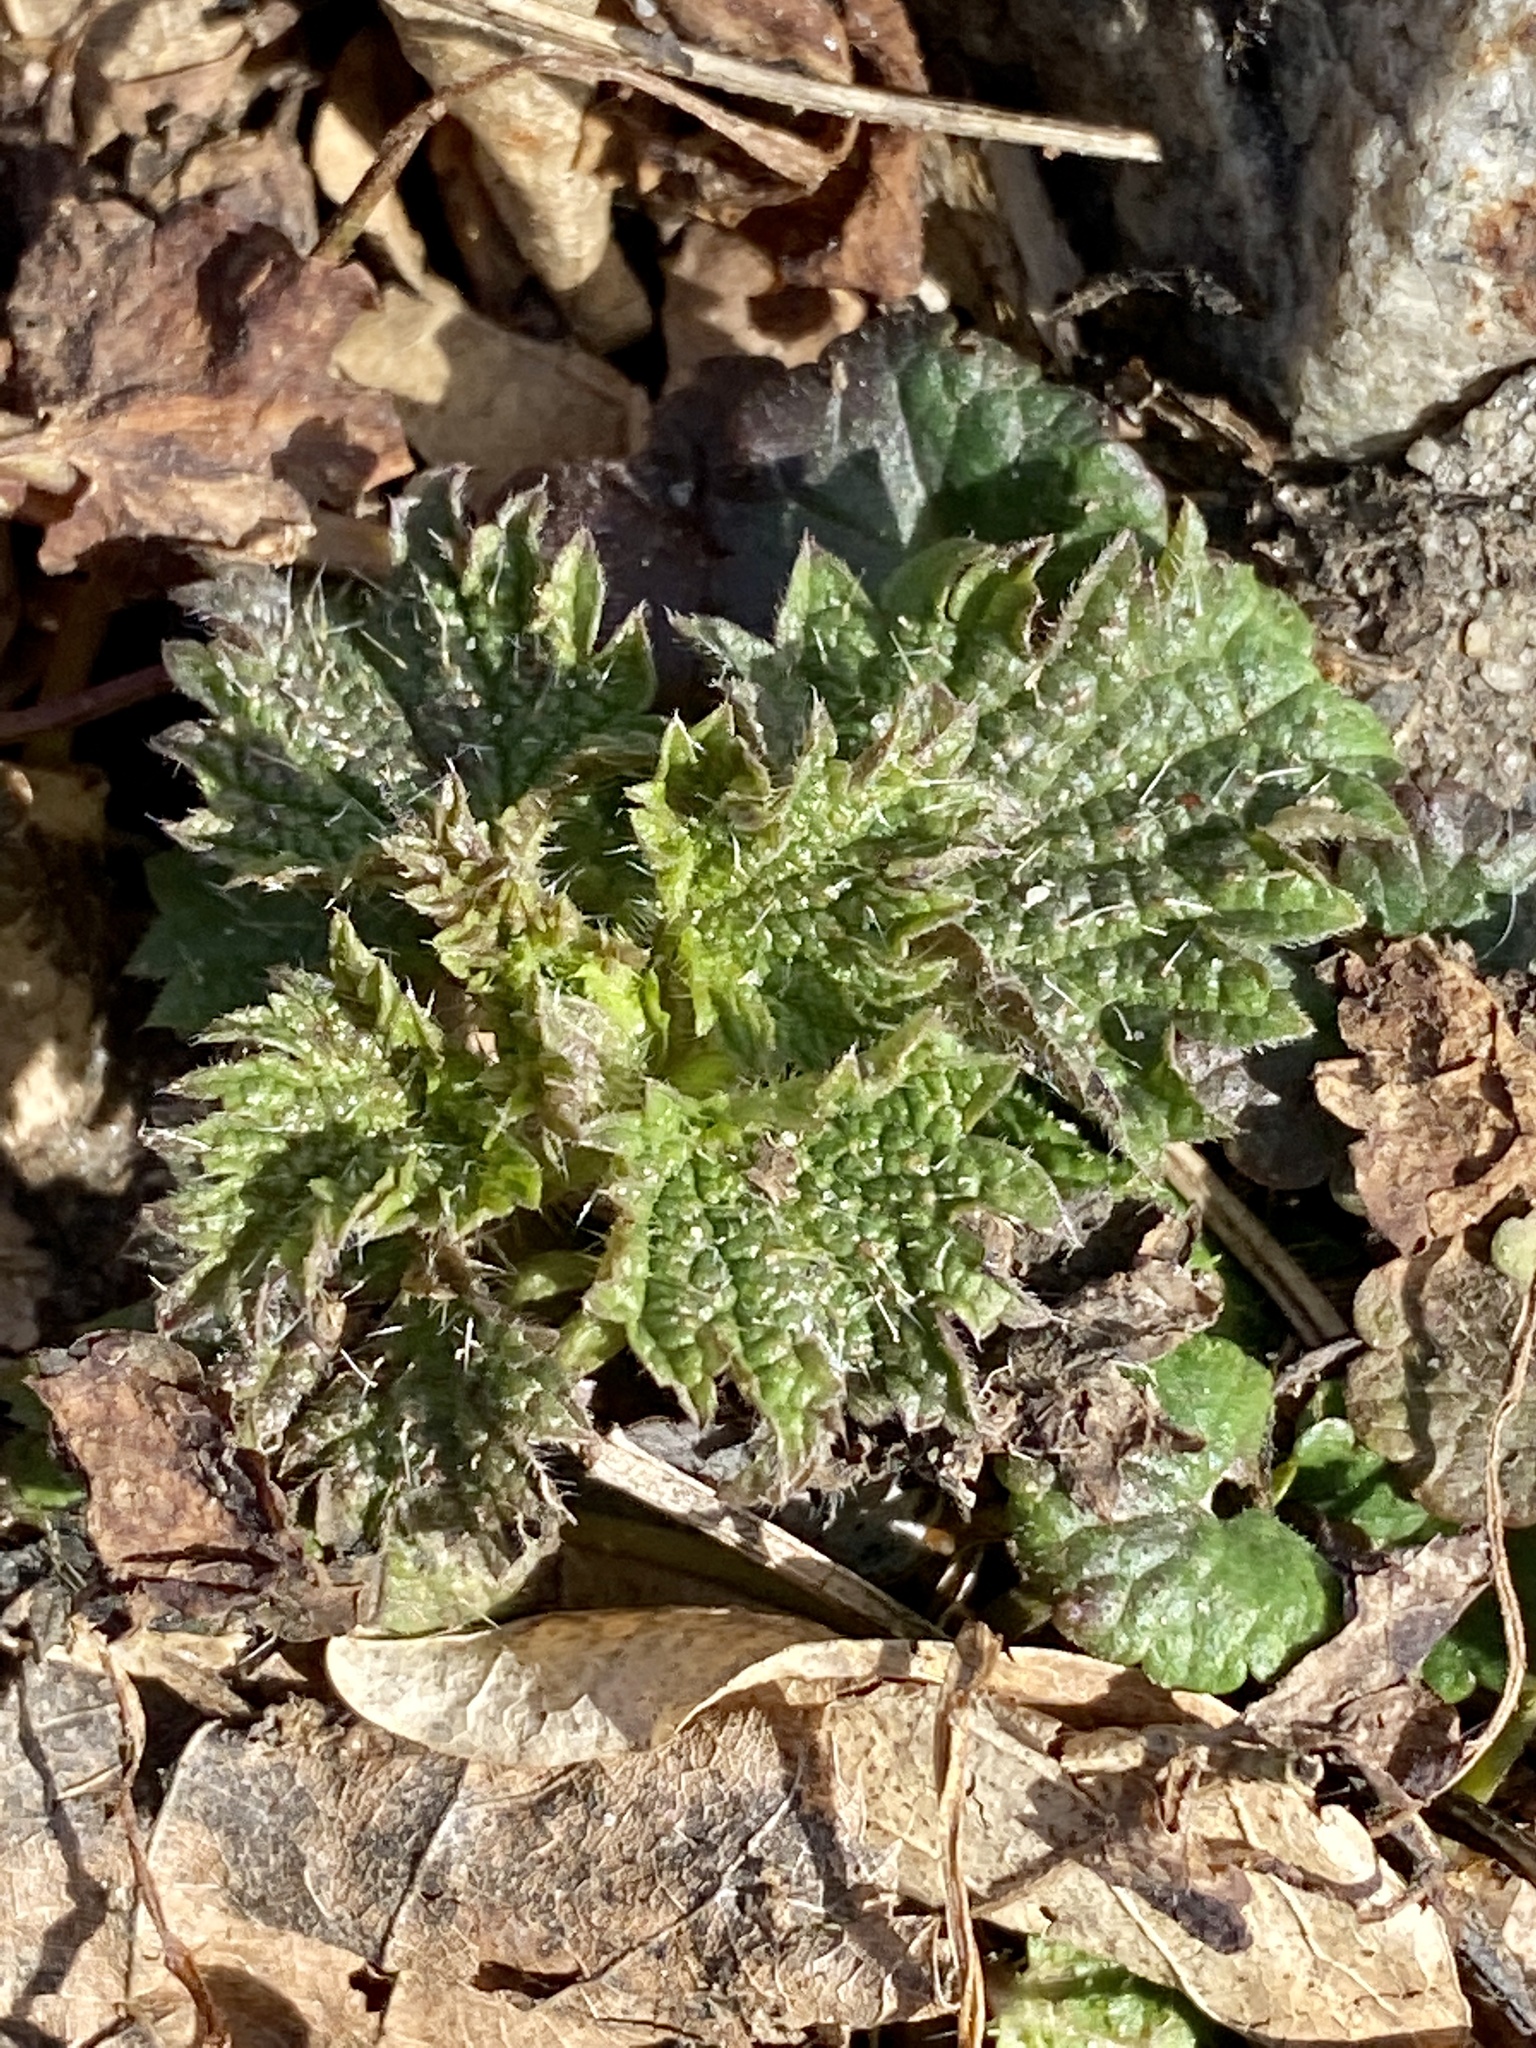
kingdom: Plantae
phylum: Tracheophyta
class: Magnoliopsida
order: Rosales
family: Urticaceae
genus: Urtica
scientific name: Urtica dioica
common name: Common nettle
